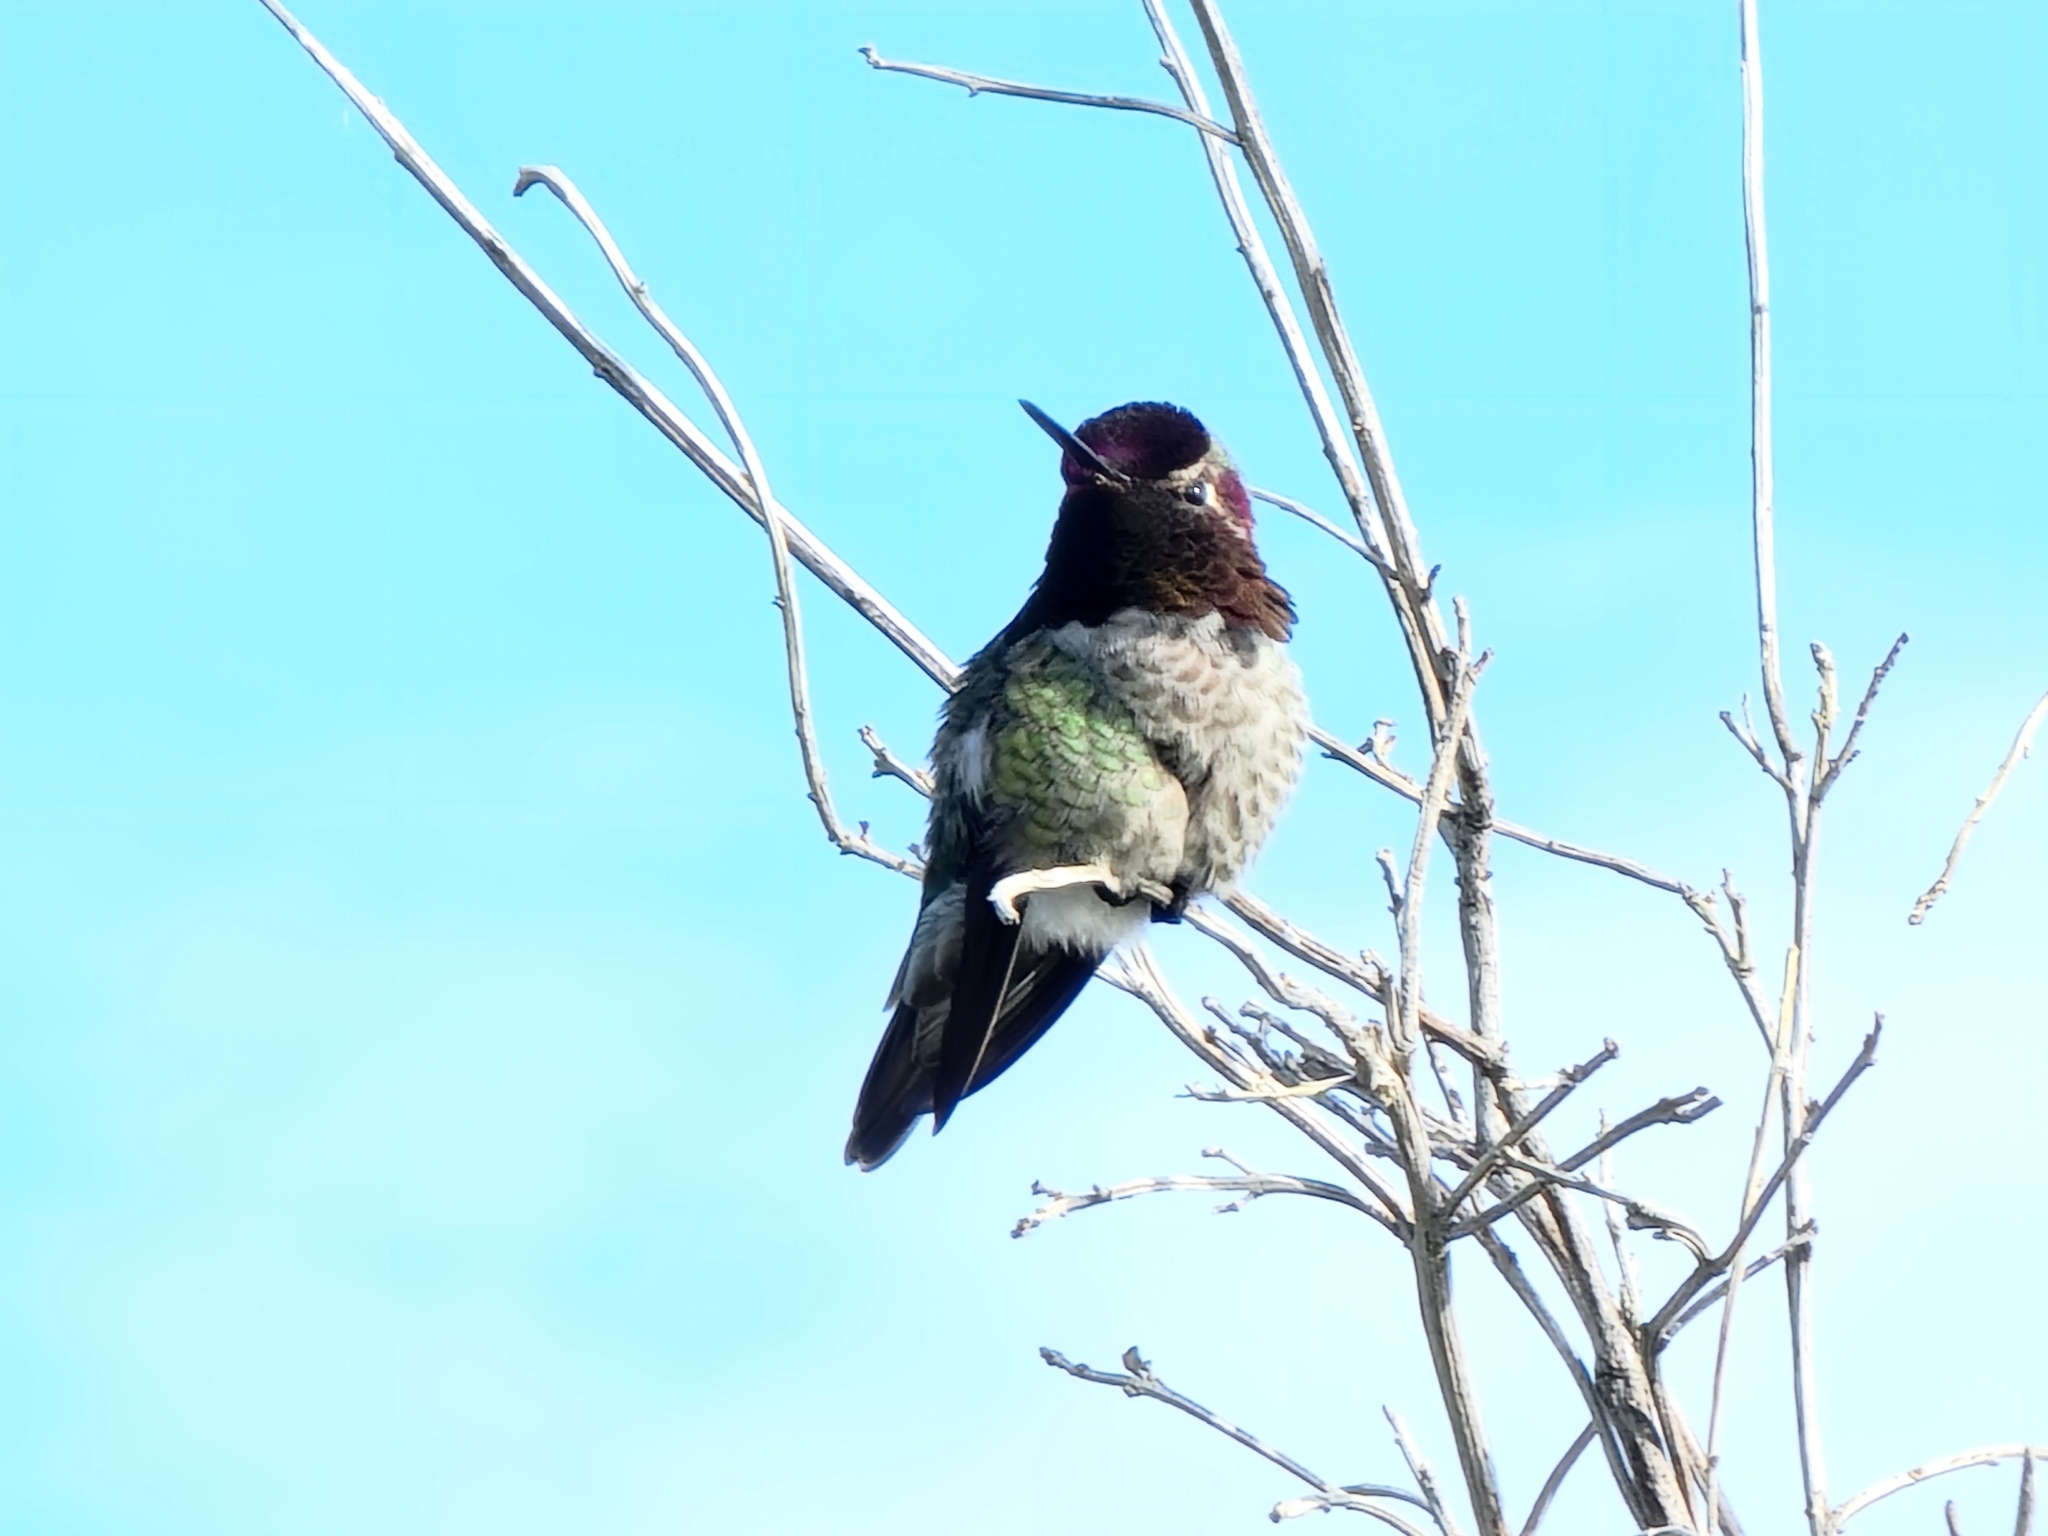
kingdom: Animalia
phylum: Chordata
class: Aves
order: Apodiformes
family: Trochilidae
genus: Calypte
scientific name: Calypte anna
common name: Anna's hummingbird
